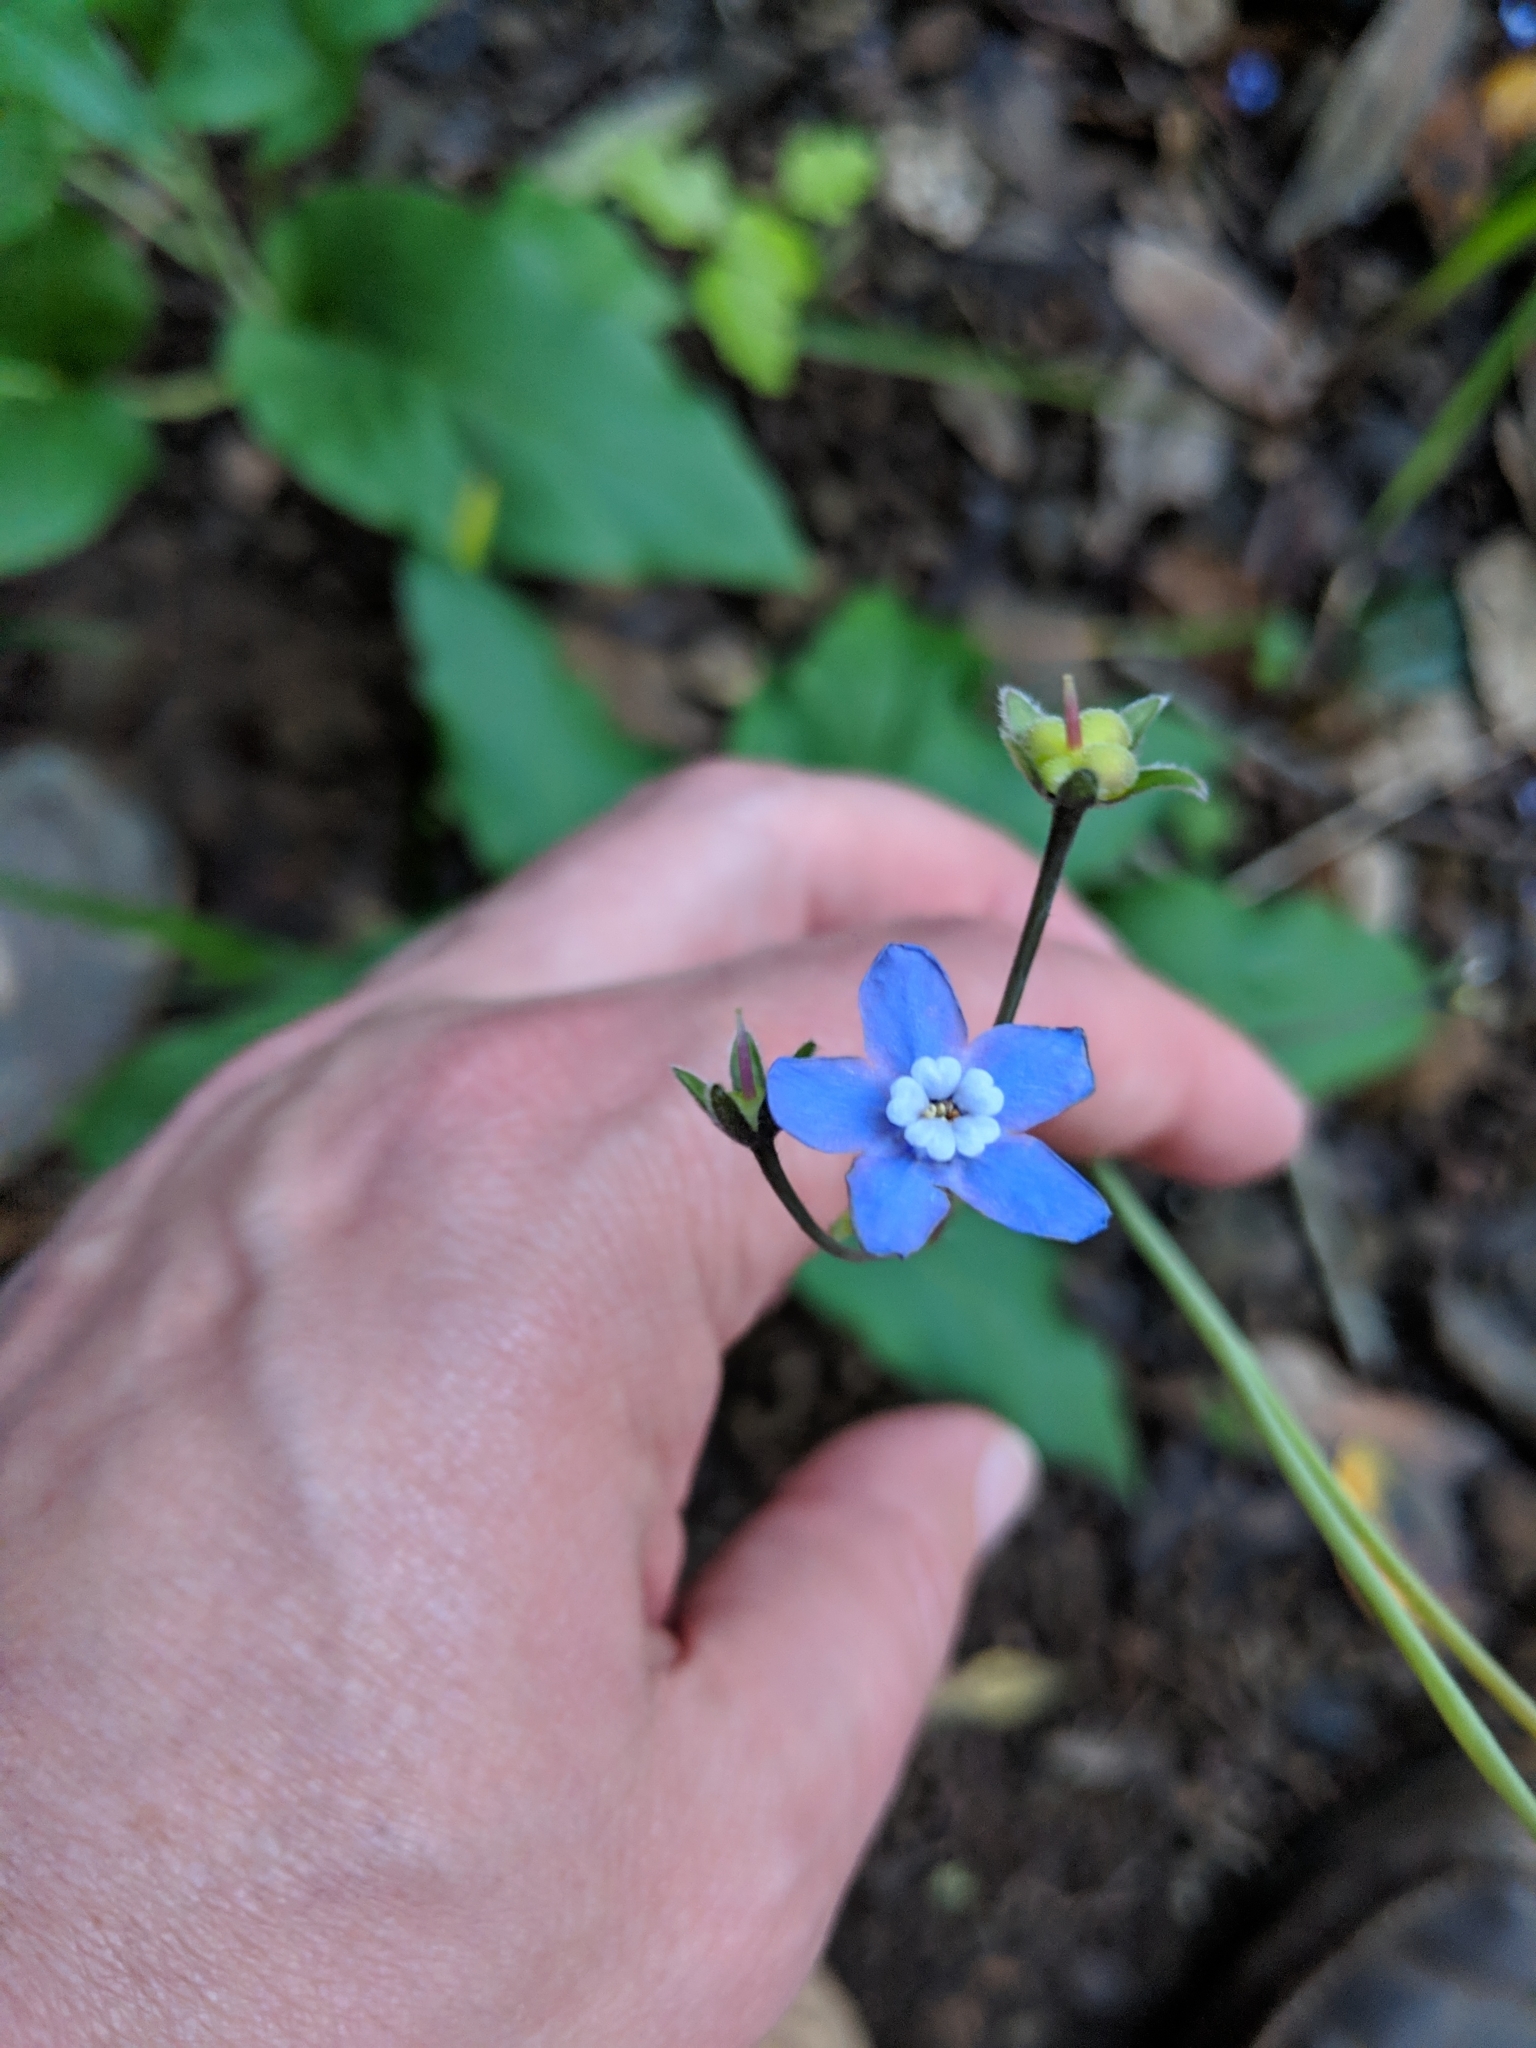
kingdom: Plantae
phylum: Tracheophyta
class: Magnoliopsida
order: Boraginales
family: Boraginaceae
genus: Adelinia
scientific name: Adelinia grande
